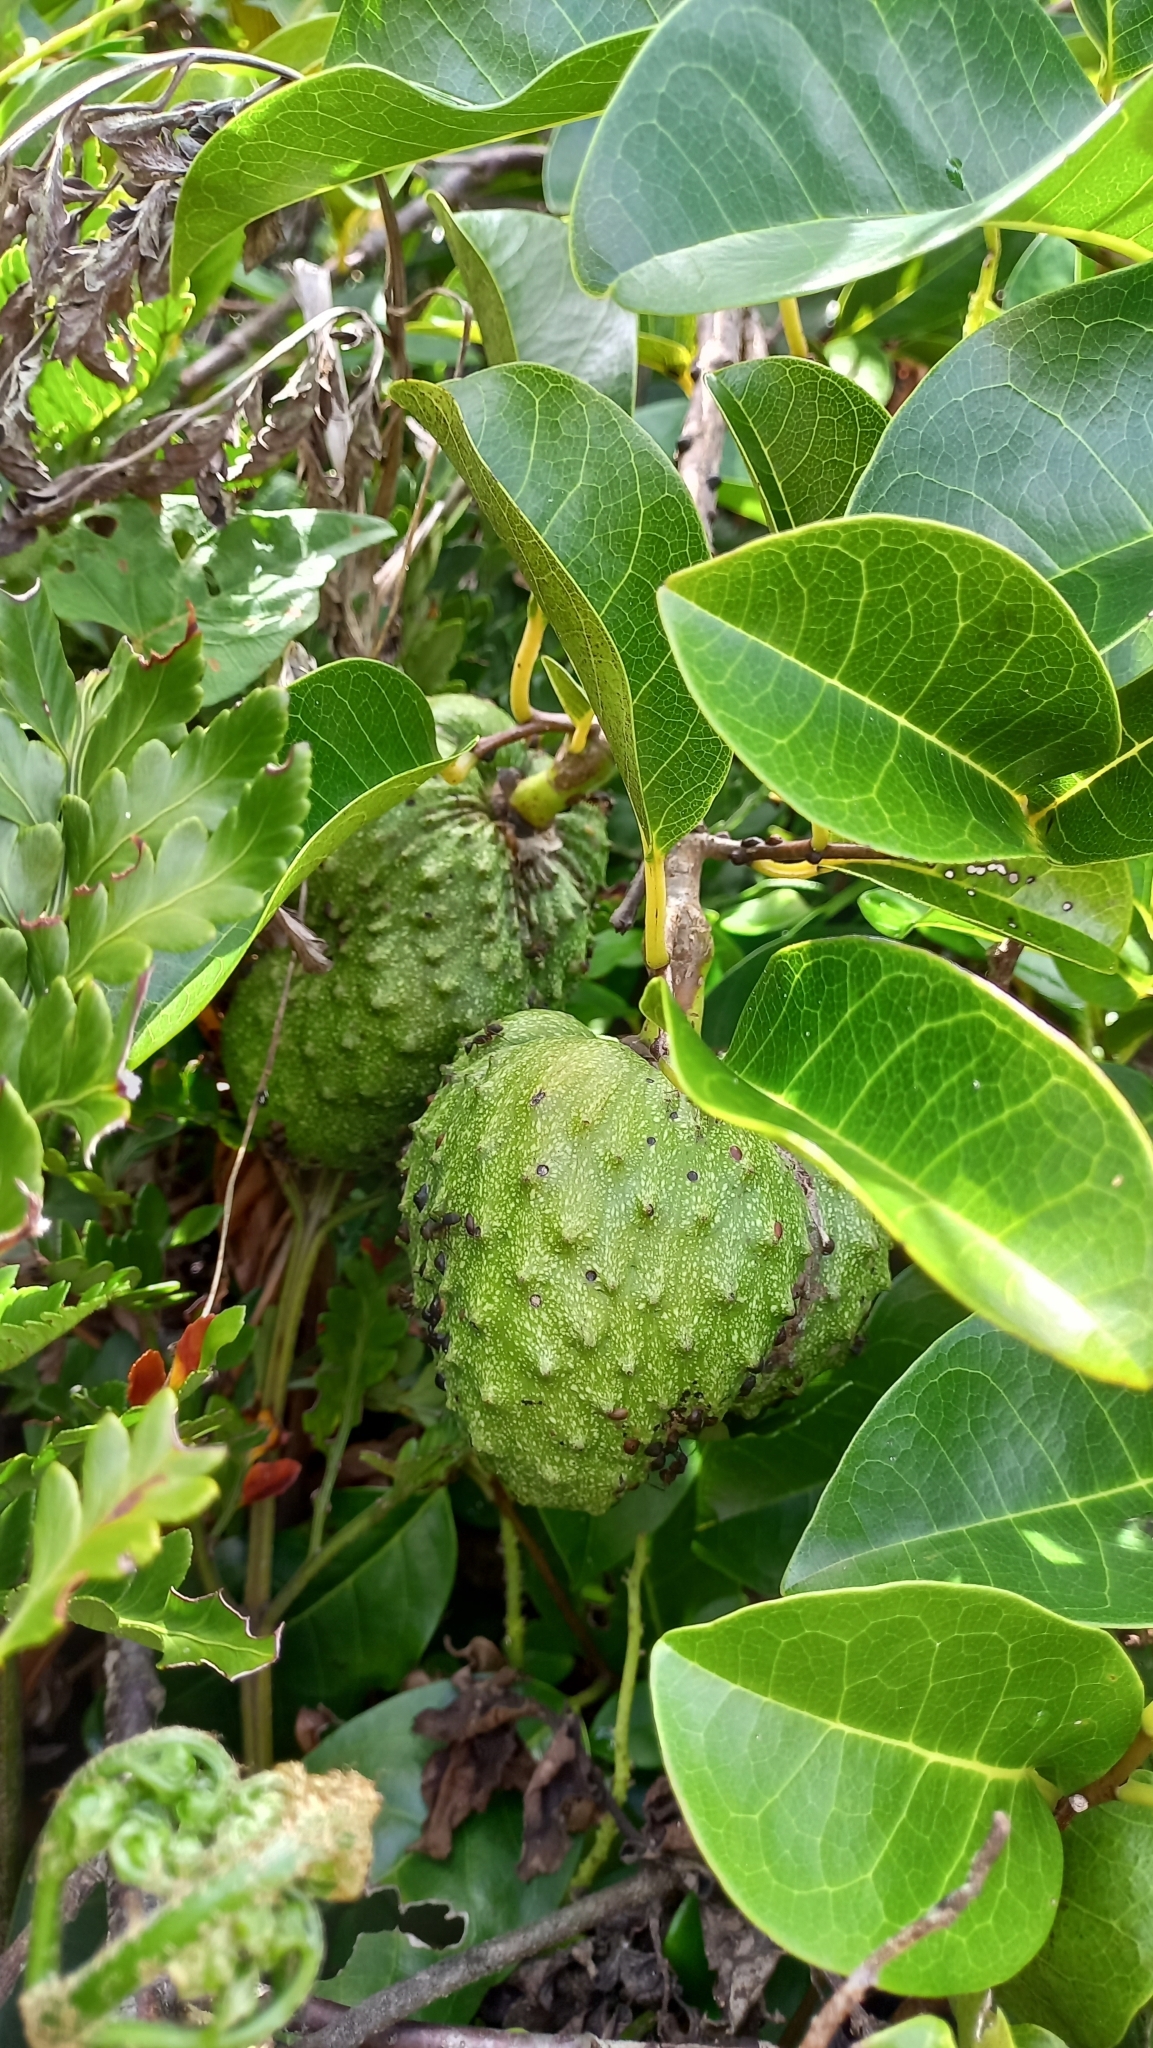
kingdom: Plantae
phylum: Tracheophyta
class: Magnoliopsida
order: Magnoliales
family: Annonaceae
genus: Annona
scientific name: Annona glabra
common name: Monkey apple
